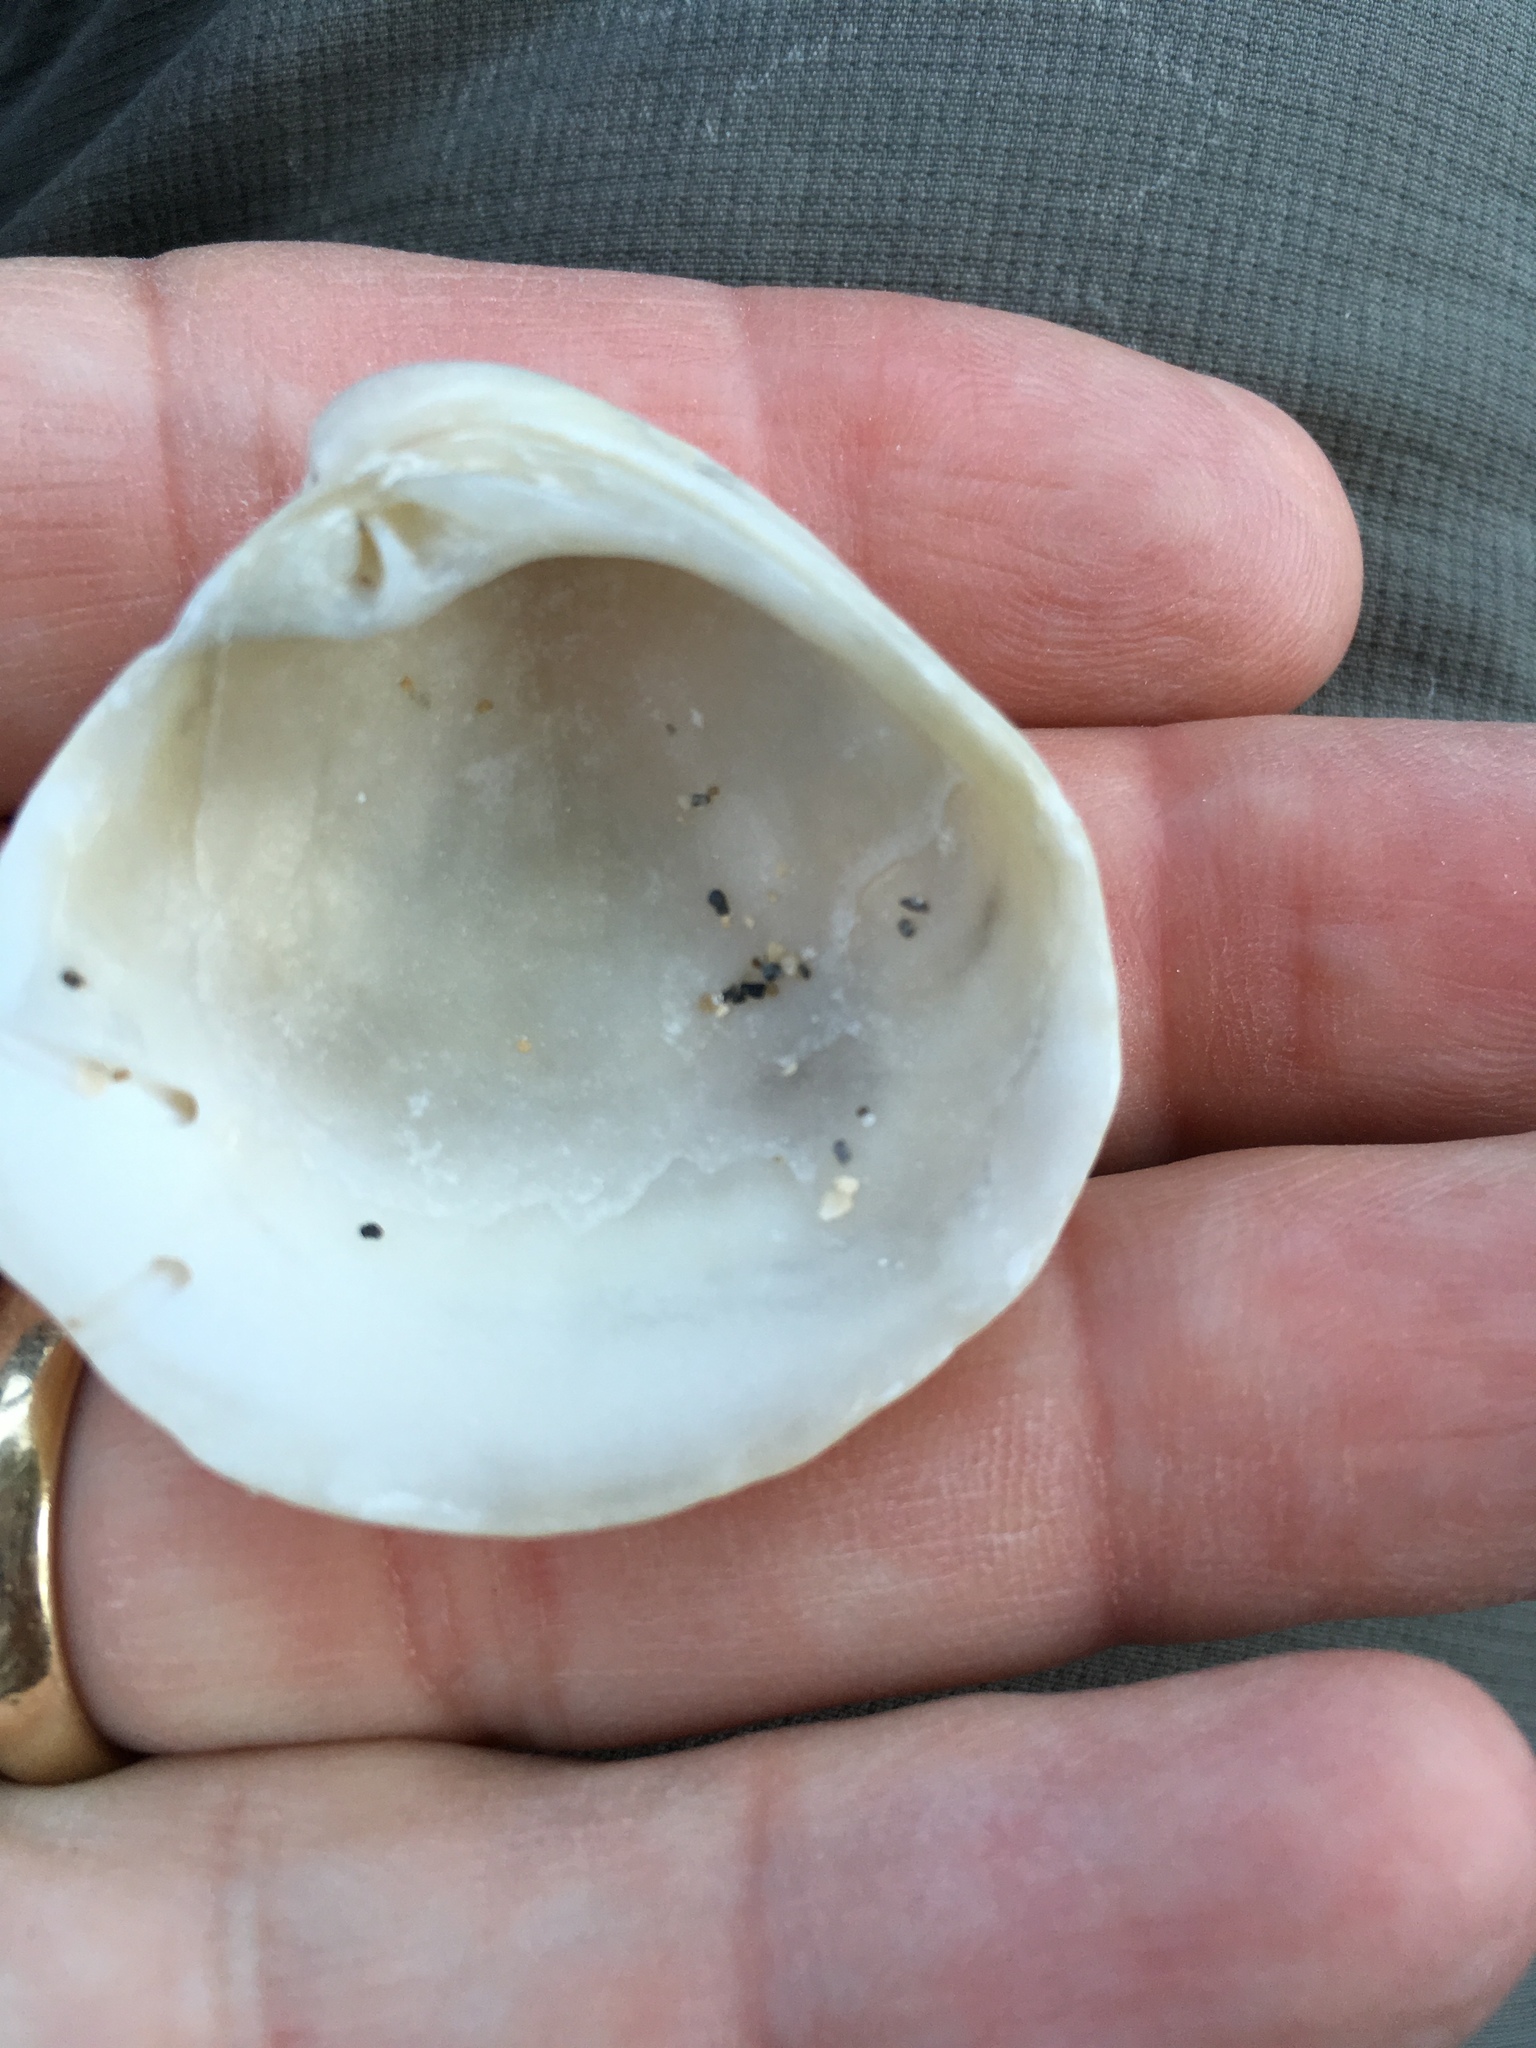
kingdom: Animalia
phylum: Mollusca
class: Bivalvia
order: Venerida
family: Veneridae
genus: Chionopsis
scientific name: Chionopsis intapurpurea
